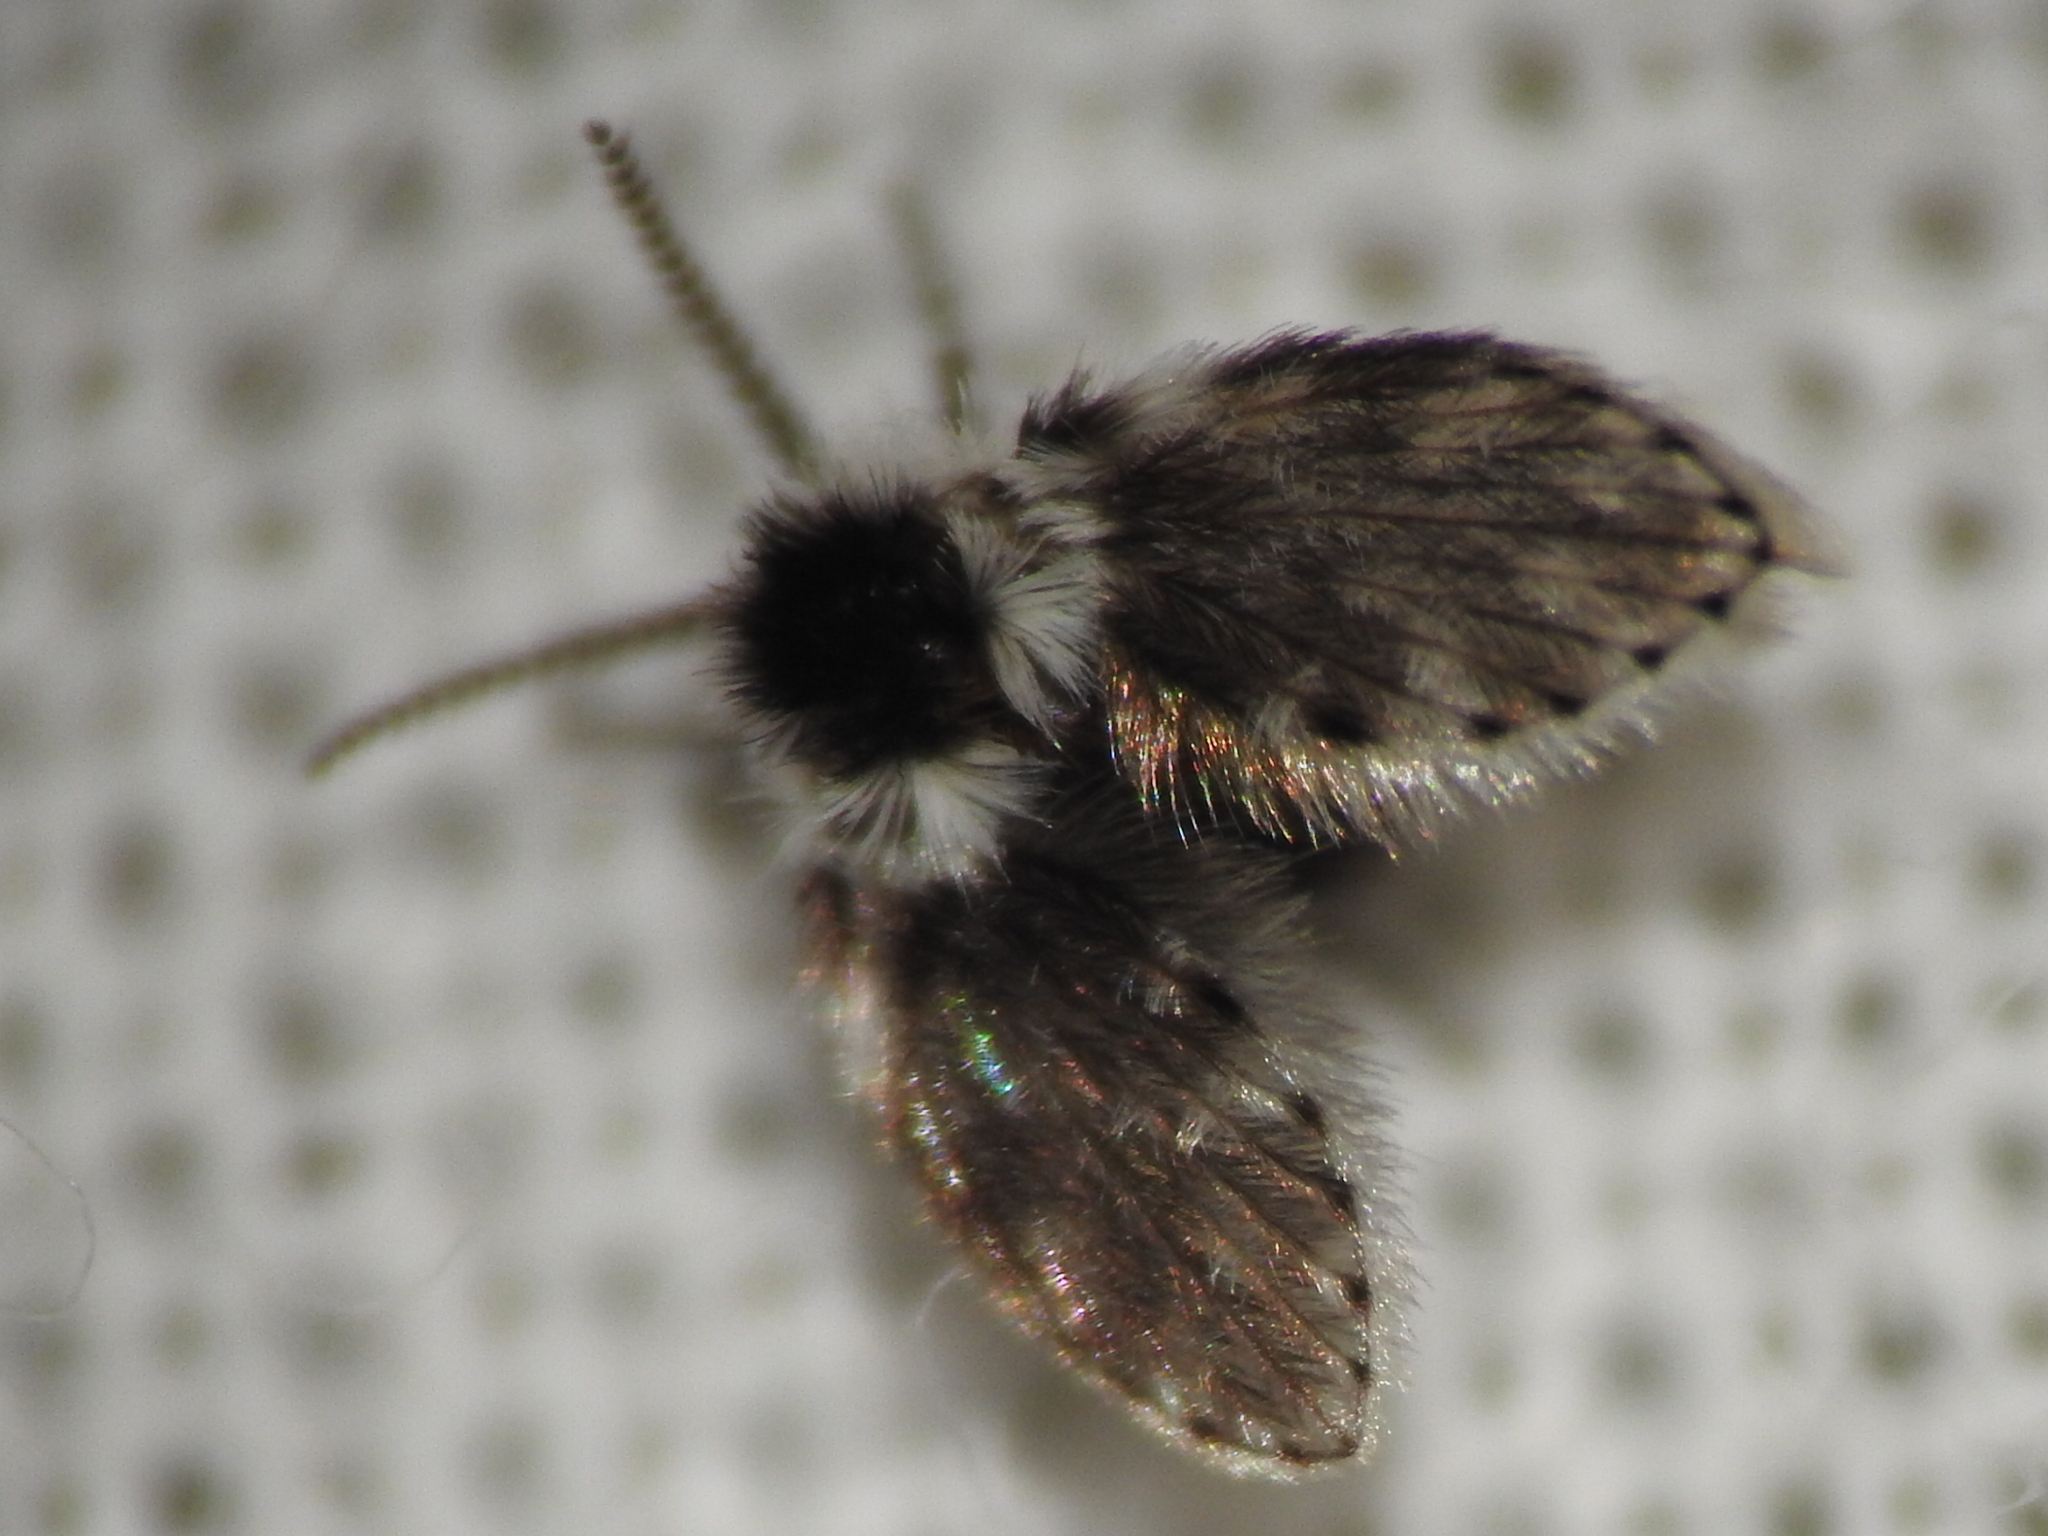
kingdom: Animalia
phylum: Arthropoda
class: Insecta
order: Diptera
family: Psychodidae
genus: Lepiseodina
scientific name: Lepiseodina
